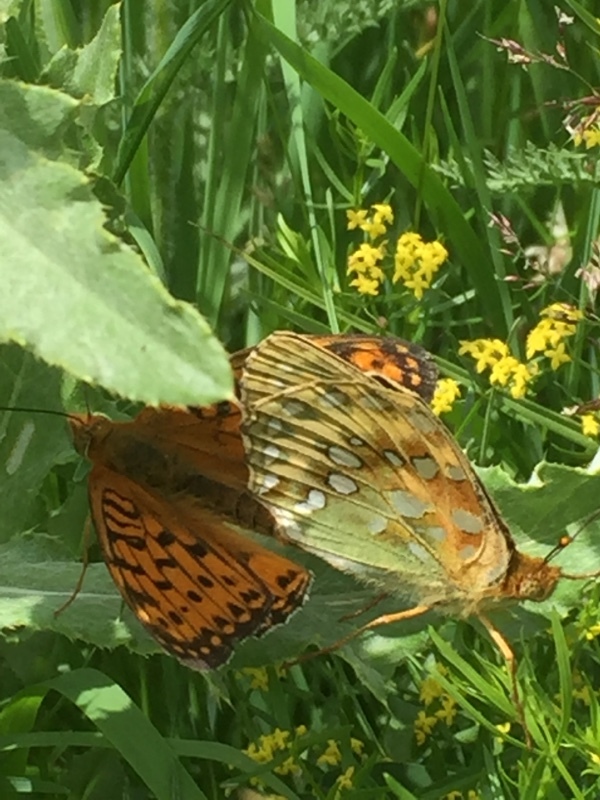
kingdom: Animalia
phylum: Arthropoda
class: Insecta
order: Lepidoptera
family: Nymphalidae
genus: Speyeria
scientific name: Speyeria aglaja
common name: Dark green fritillary
